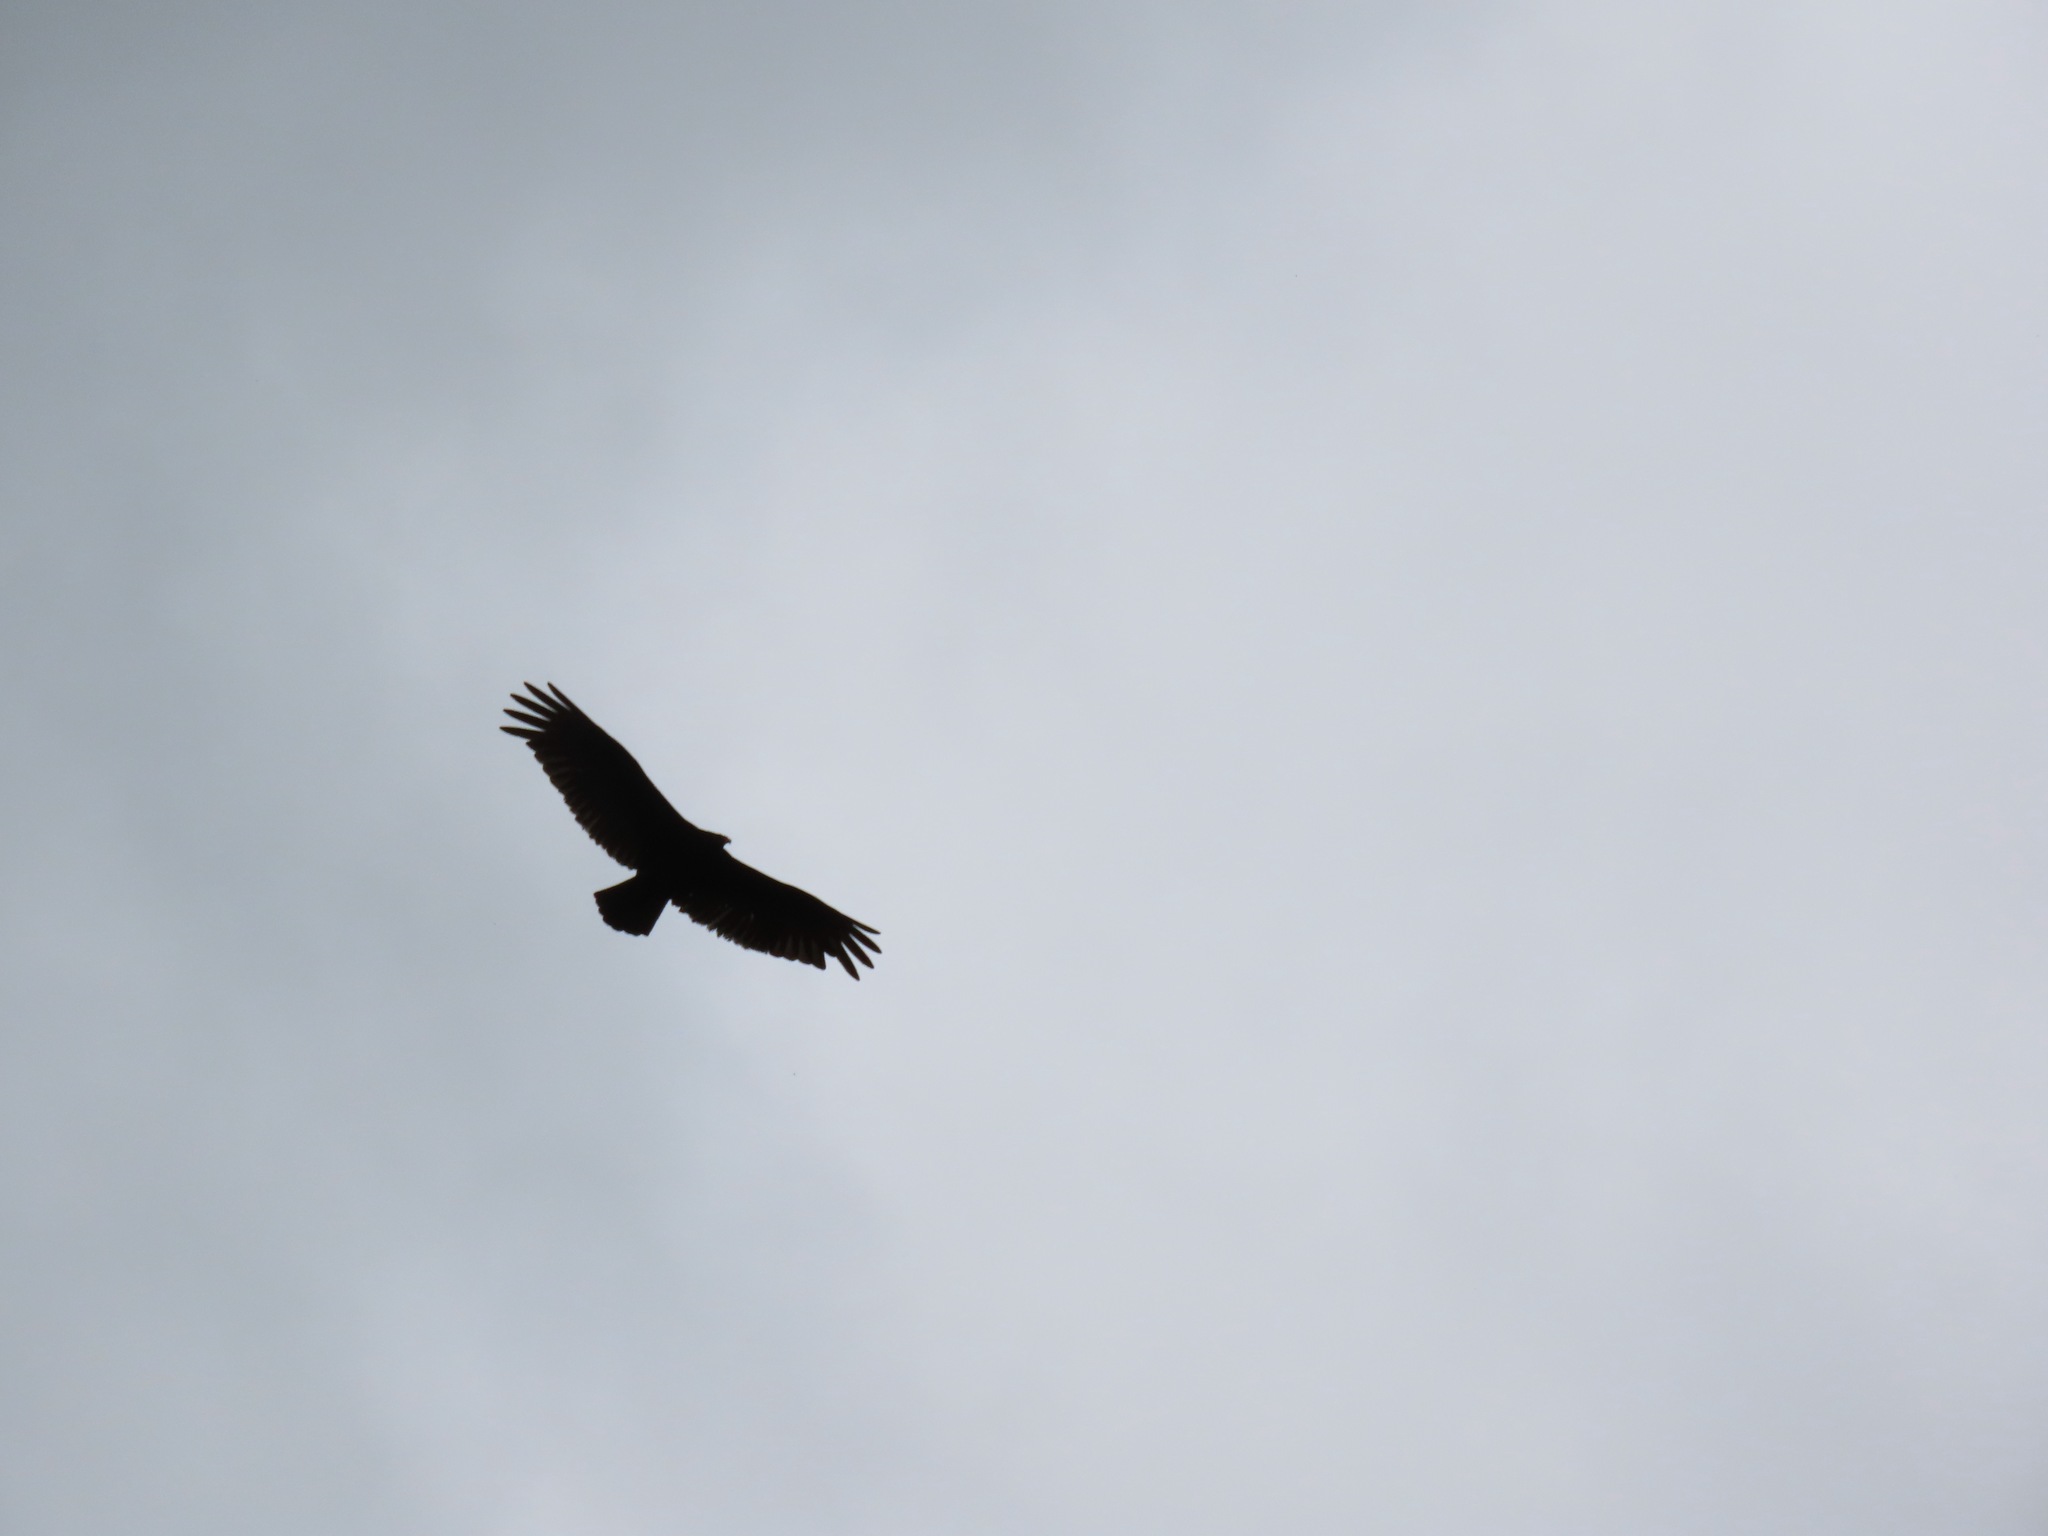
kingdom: Animalia
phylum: Chordata
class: Aves
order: Accipitriformes
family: Cathartidae
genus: Cathartes
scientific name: Cathartes aura
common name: Turkey vulture
